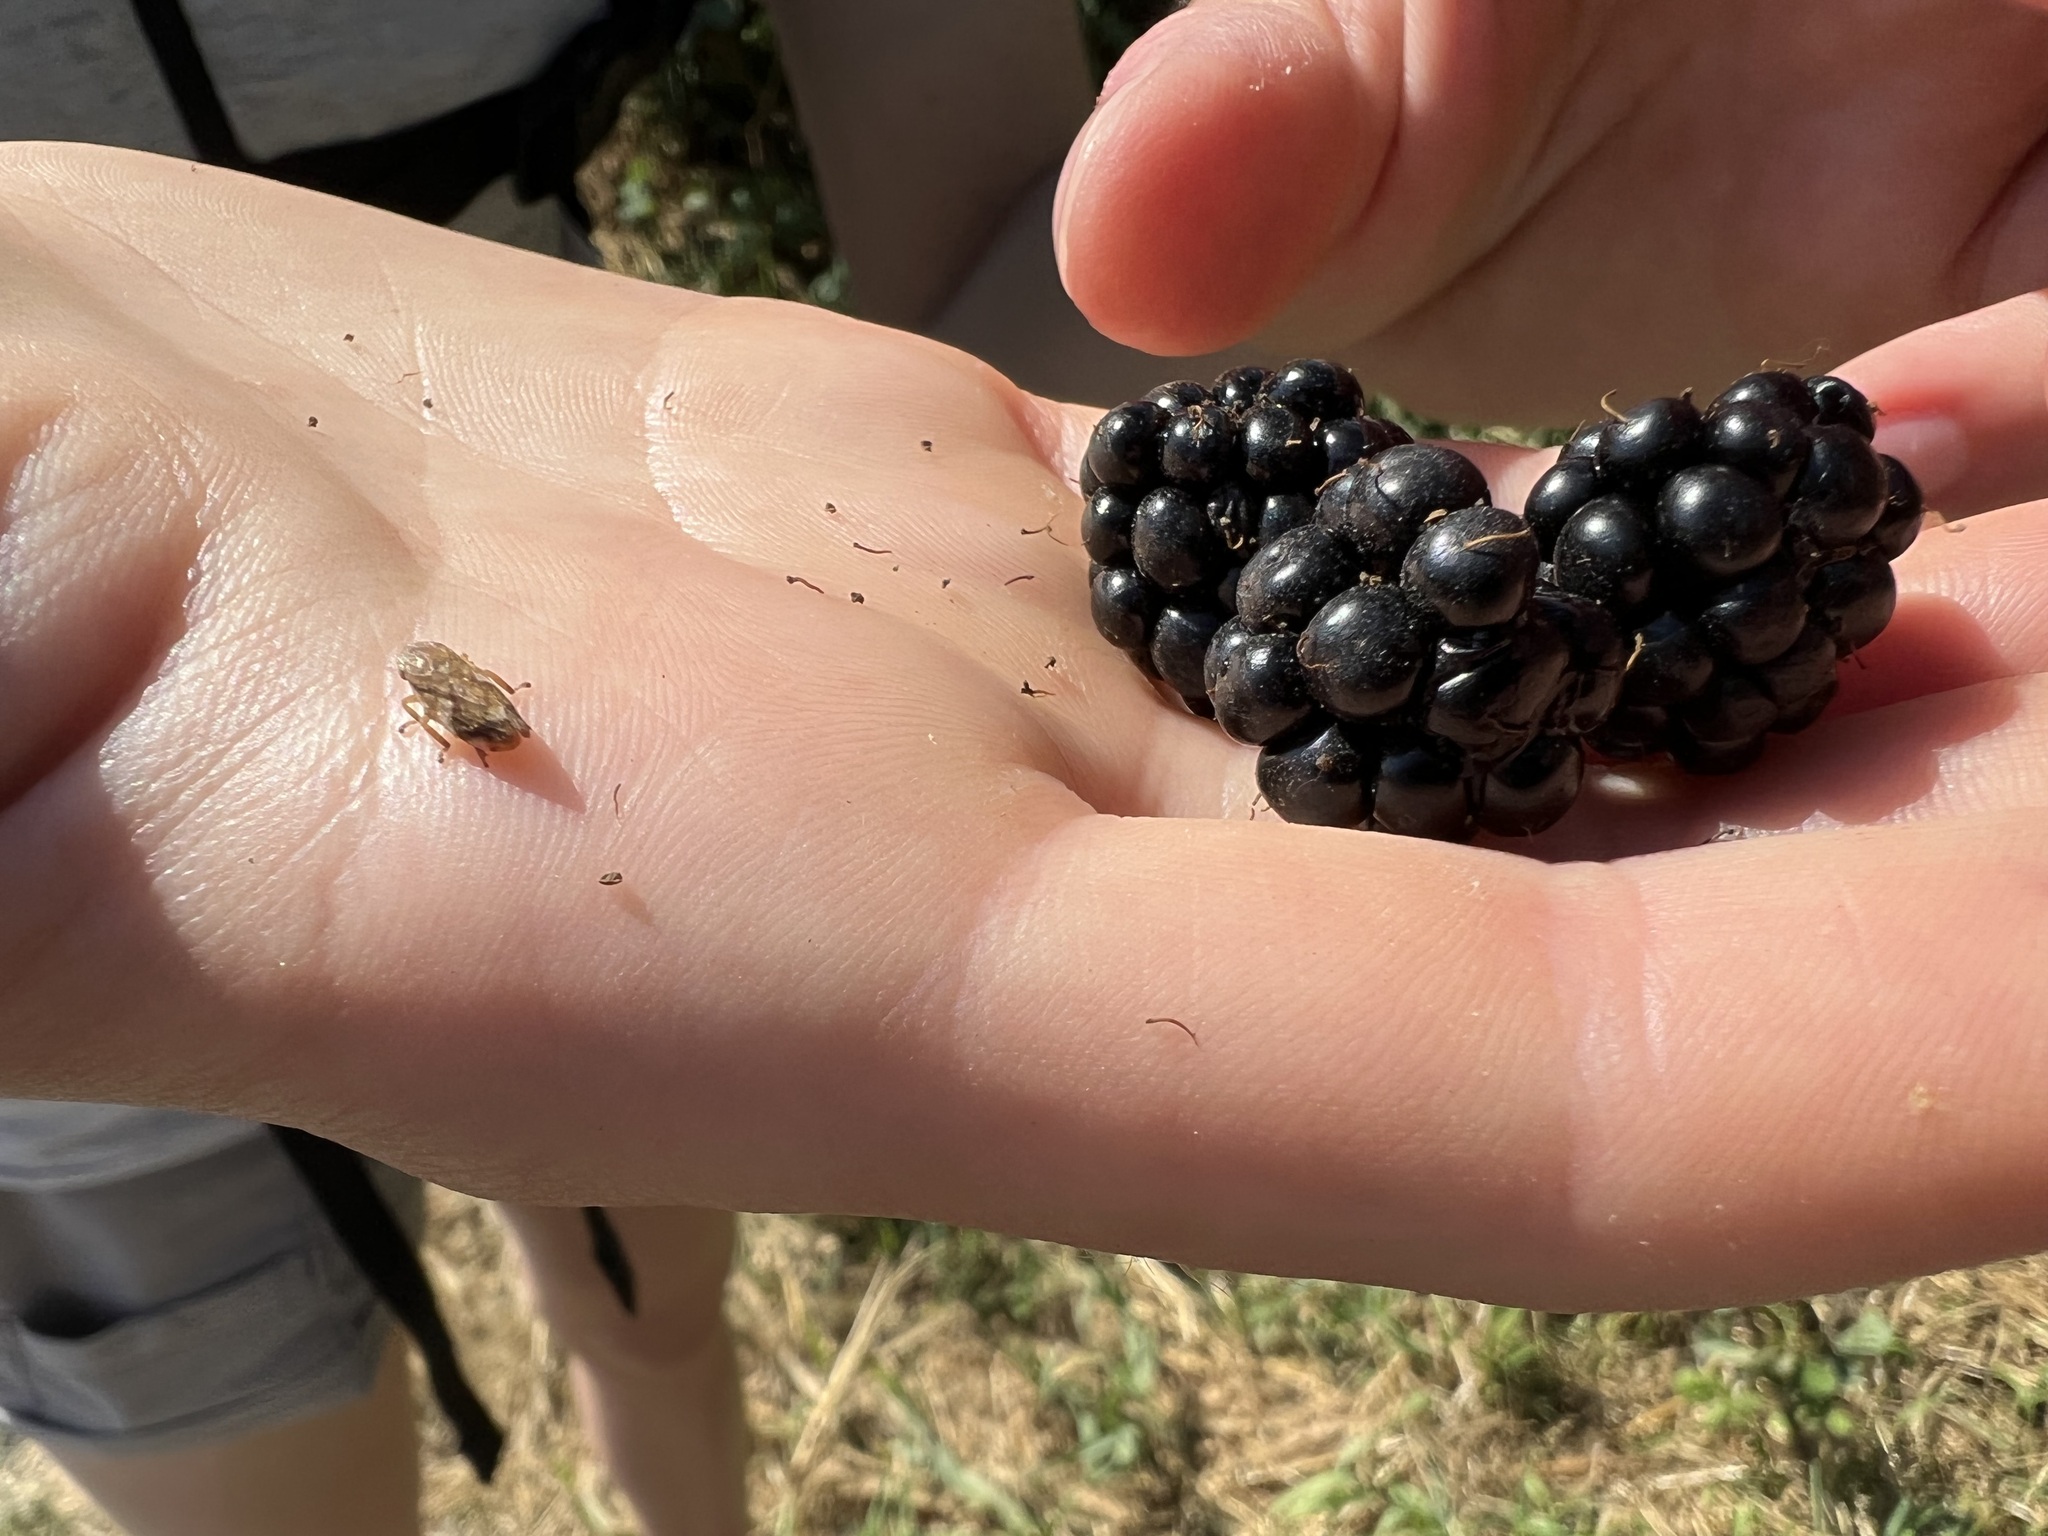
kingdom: Plantae
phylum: Tracheophyta
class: Magnoliopsida
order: Rosales
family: Rosaceae
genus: Rubus
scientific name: Rubus bifrons
